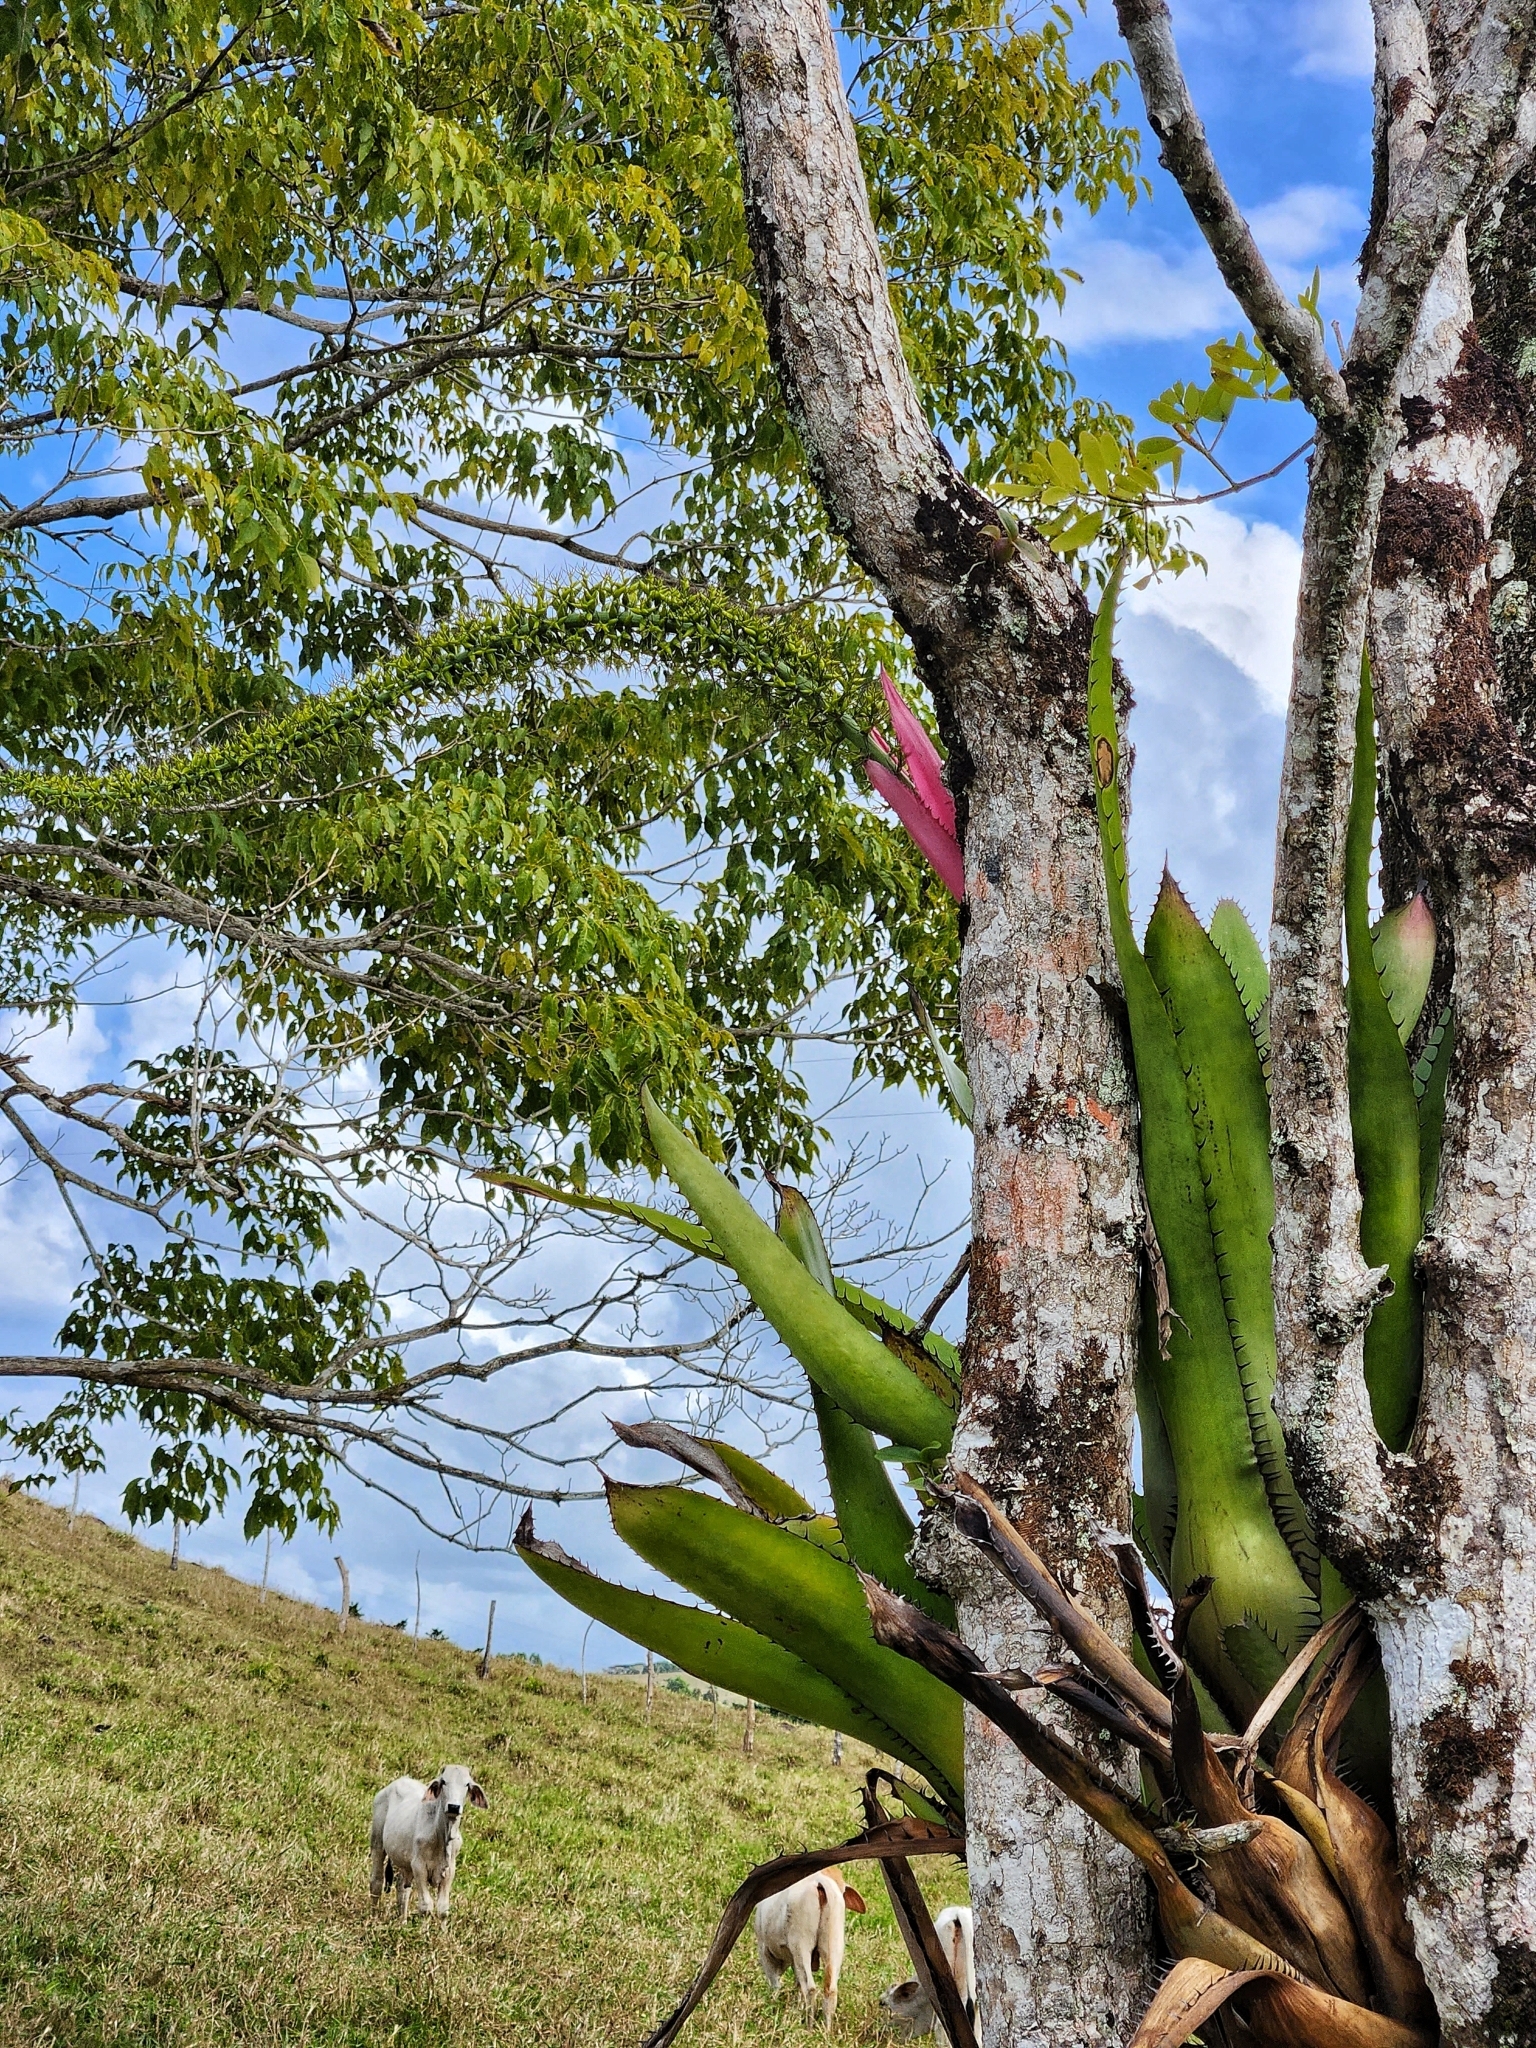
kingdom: Plantae
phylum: Tracheophyta
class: Liliopsida
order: Poales
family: Bromeliaceae
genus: Aechmea
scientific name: Aechmea setigera
